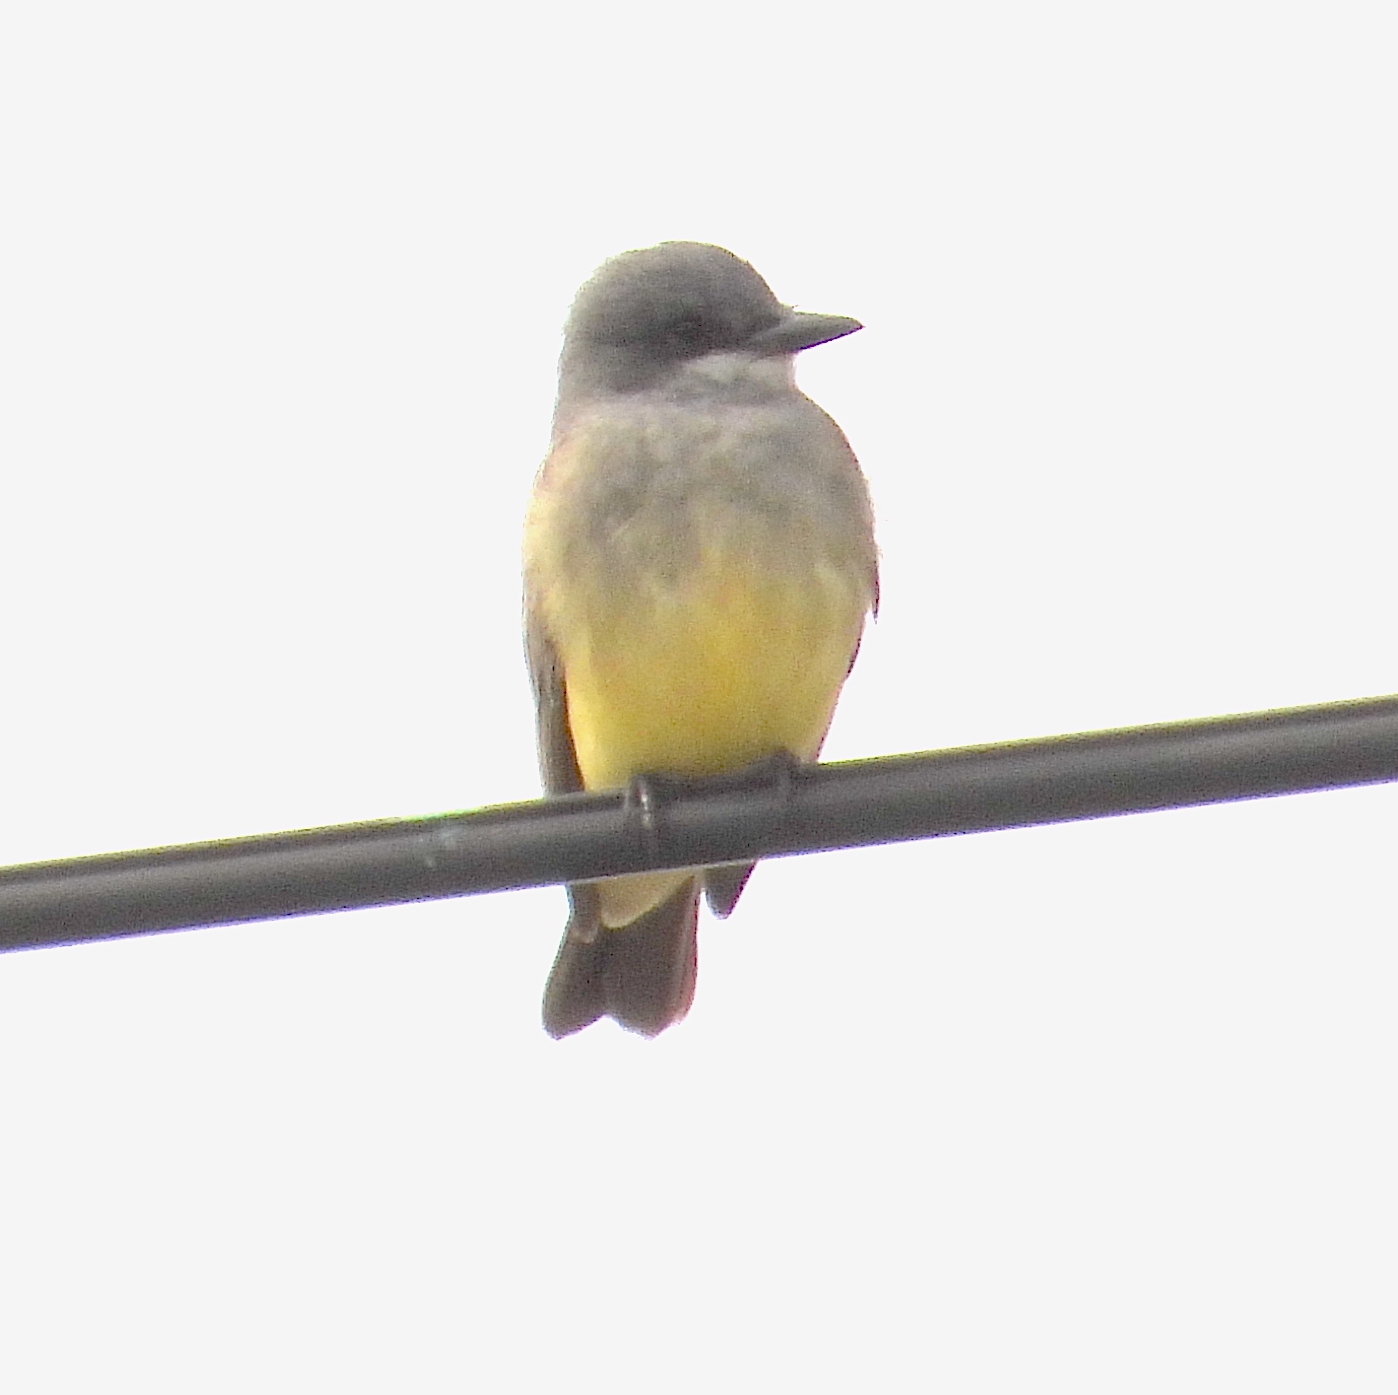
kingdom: Animalia
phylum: Chordata
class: Aves
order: Passeriformes
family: Tyrannidae
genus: Tyrannus
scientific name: Tyrannus vociferans
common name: Cassin's kingbird
